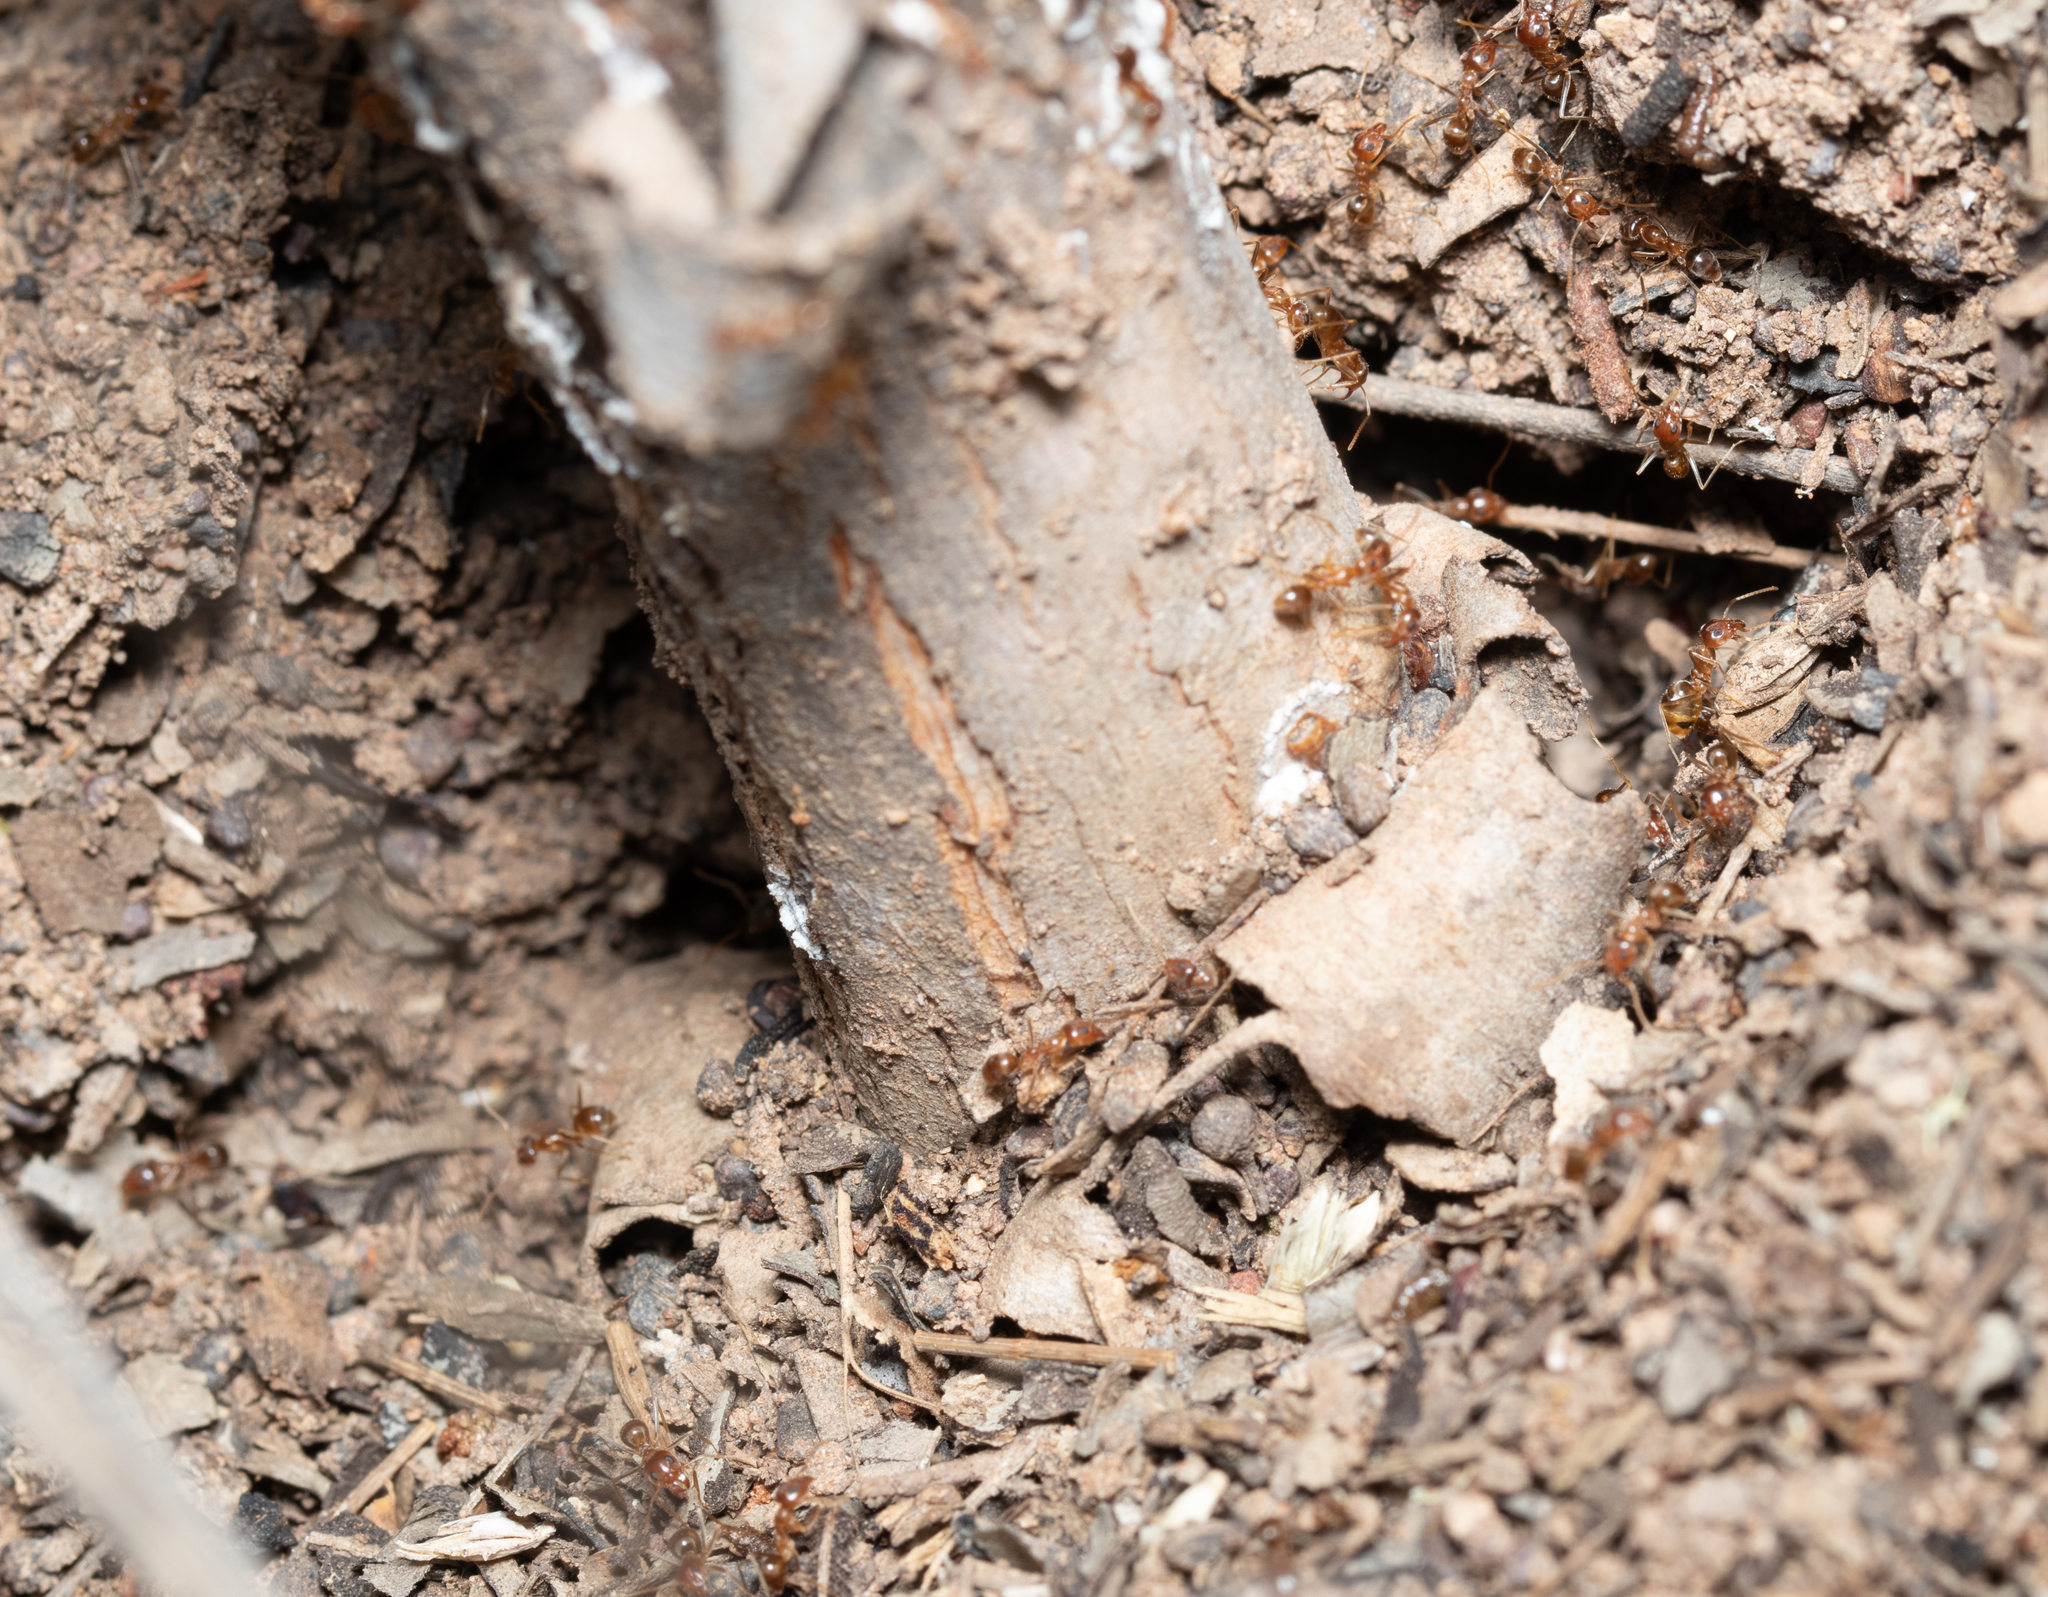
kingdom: Animalia
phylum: Arthropoda
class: Insecta
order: Hymenoptera
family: Formicidae
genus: Iridomyrmex
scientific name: Iridomyrmex pallidus
